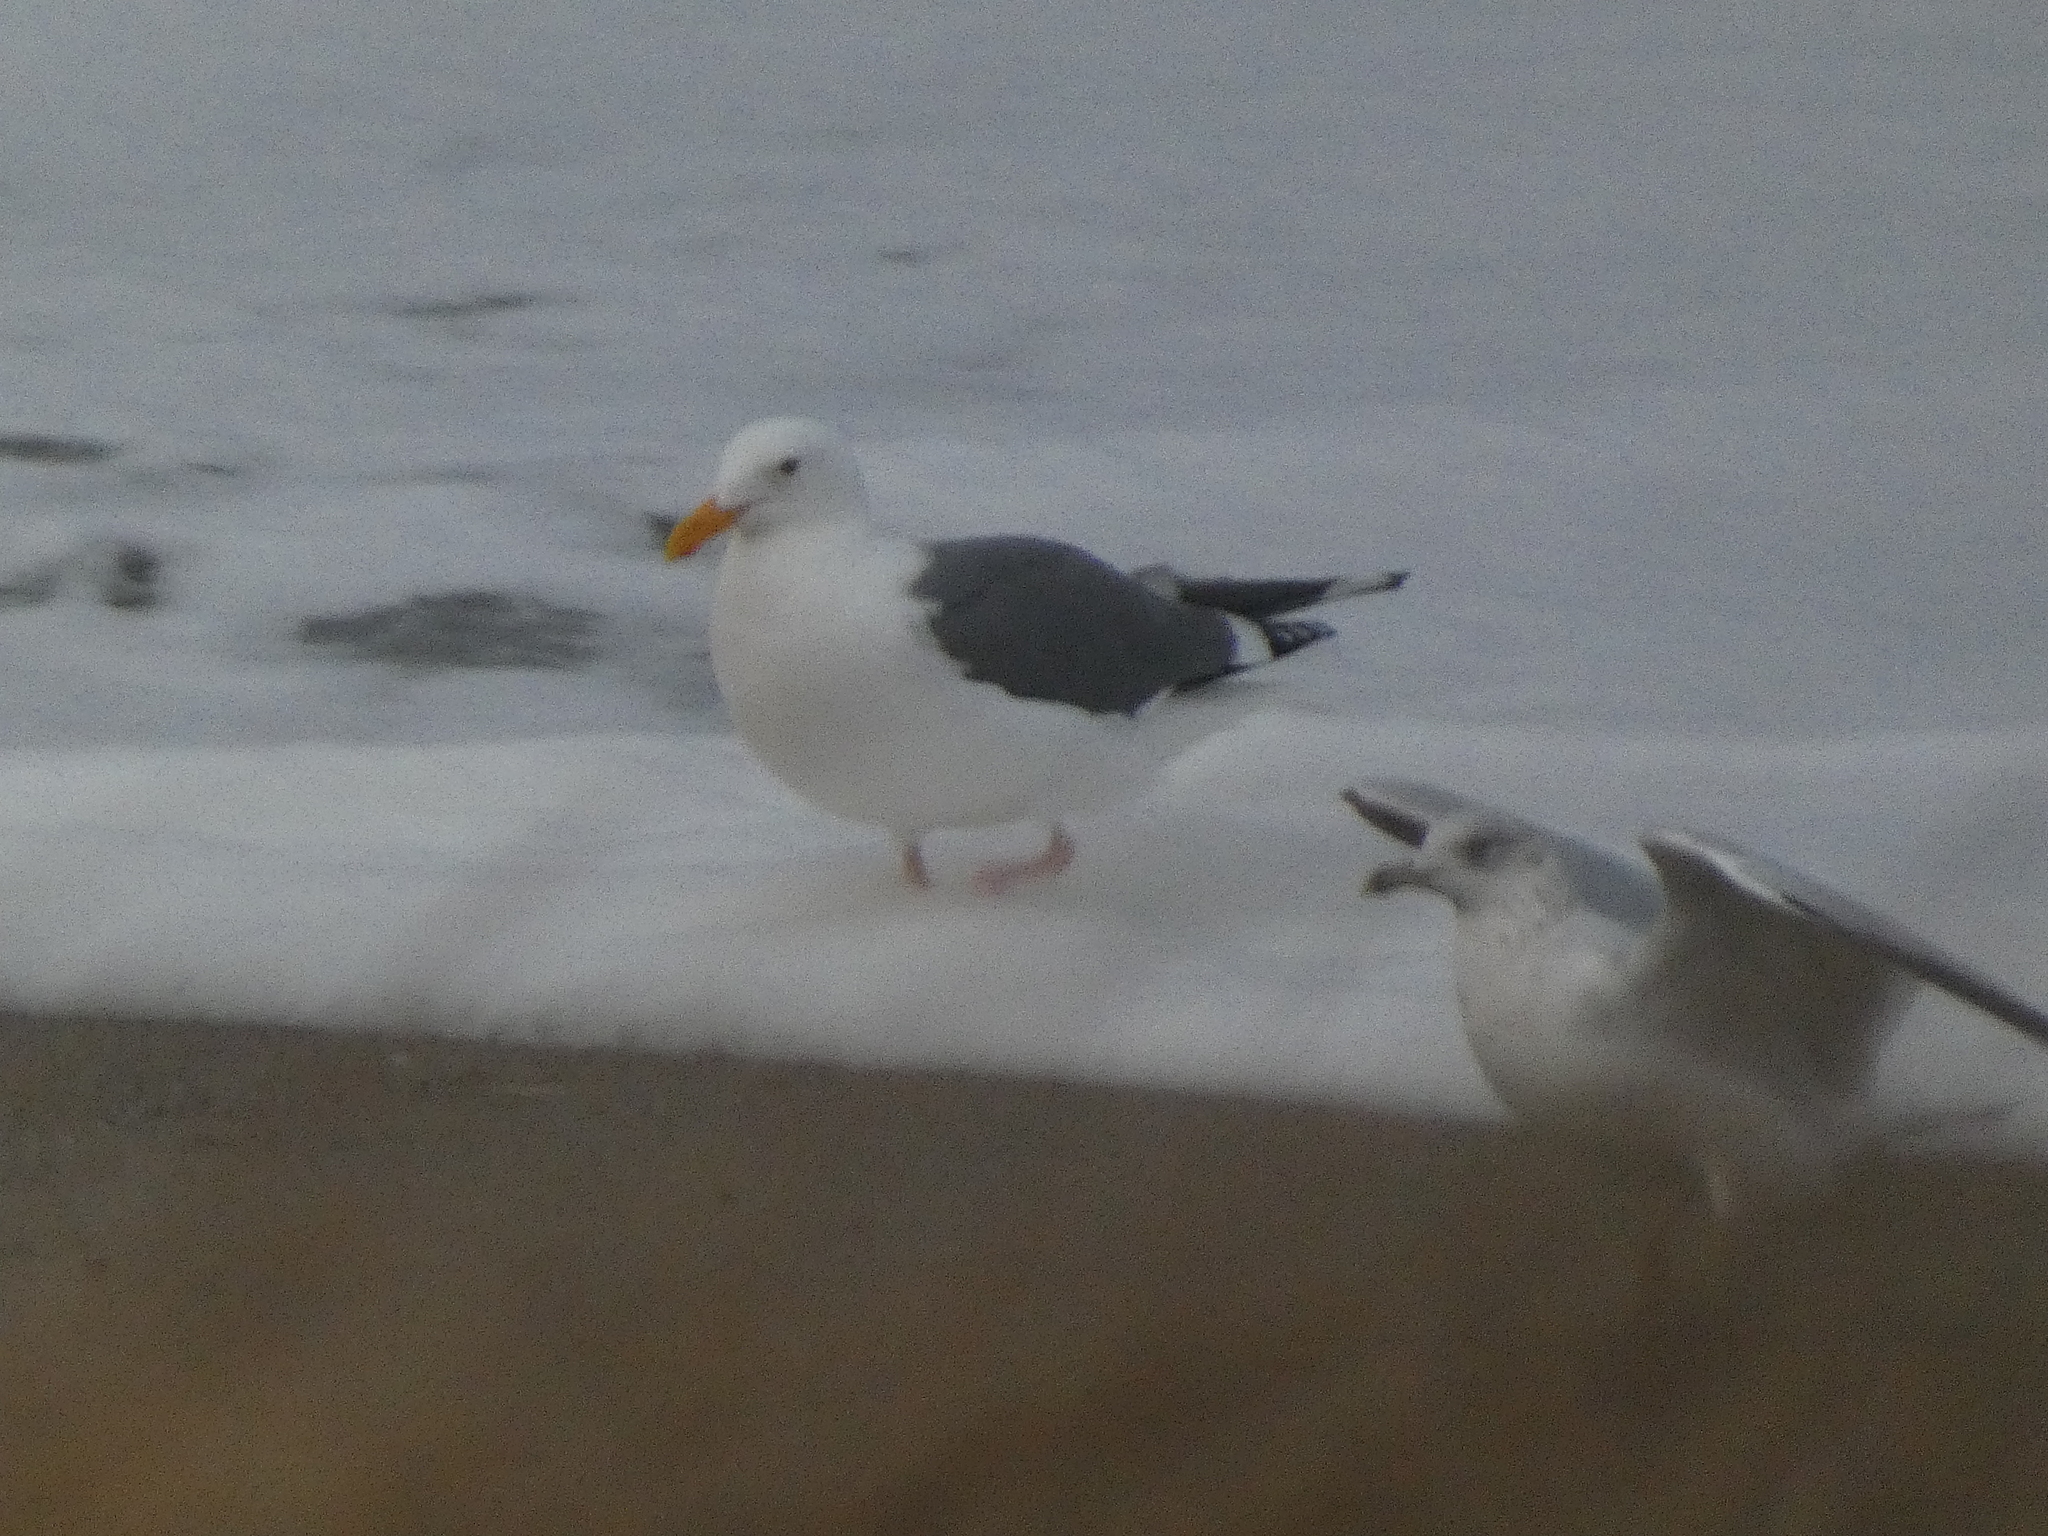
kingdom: Animalia
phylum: Chordata
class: Aves
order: Charadriiformes
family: Laridae
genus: Larus
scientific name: Larus occidentalis
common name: Western gull
